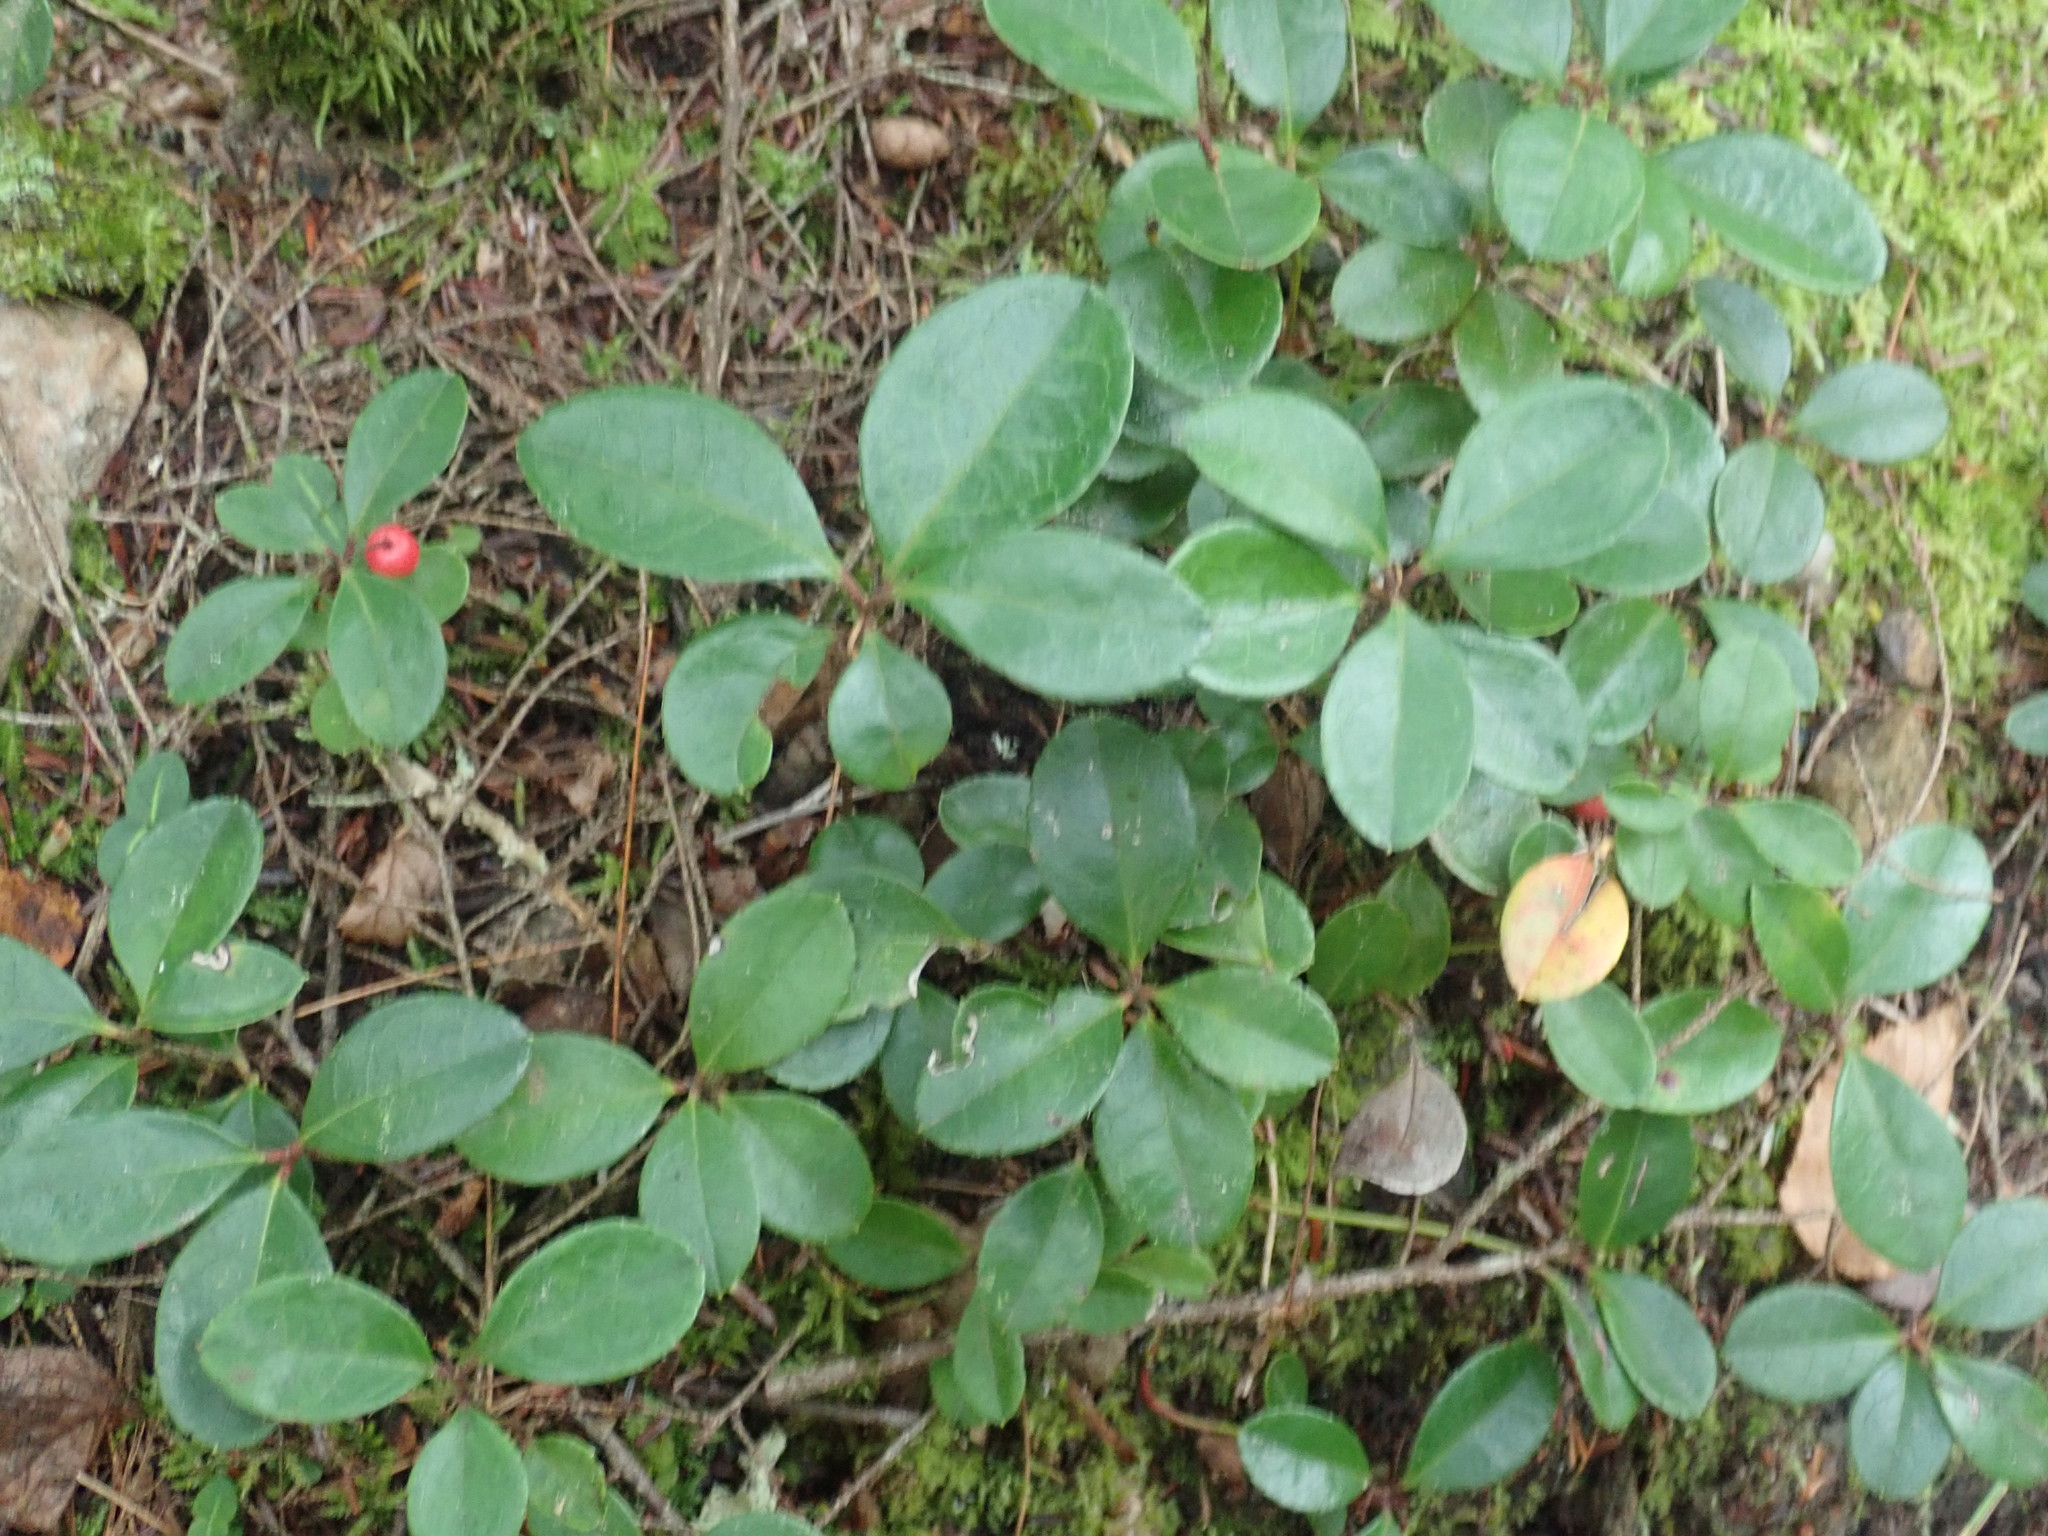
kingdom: Plantae
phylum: Tracheophyta
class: Magnoliopsida
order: Ericales
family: Ericaceae
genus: Gaultheria
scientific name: Gaultheria procumbens
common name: Checkerberry
